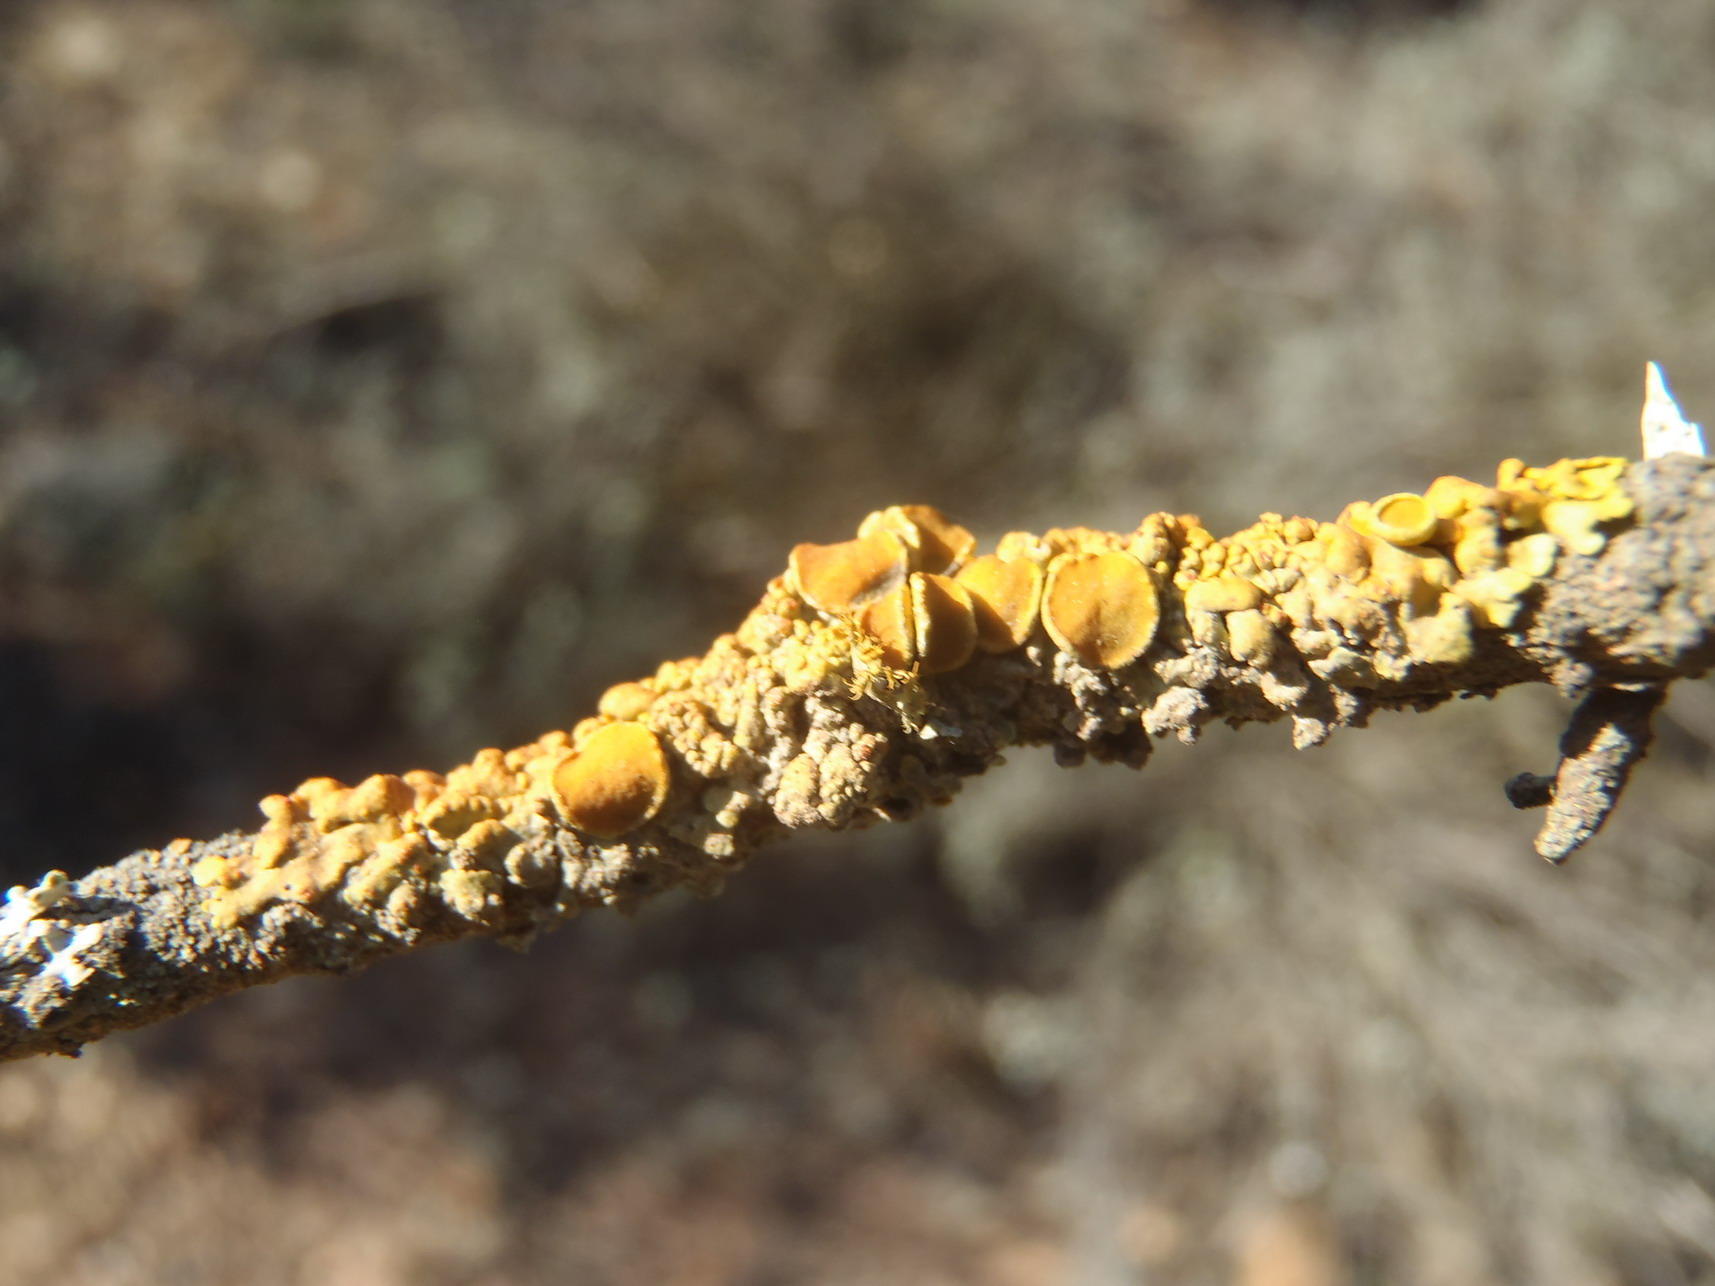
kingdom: Fungi
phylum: Ascomycota
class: Lecanoromycetes
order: Teloschistales
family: Teloschistaceae
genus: Dufourea
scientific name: Dufourea turbinata
